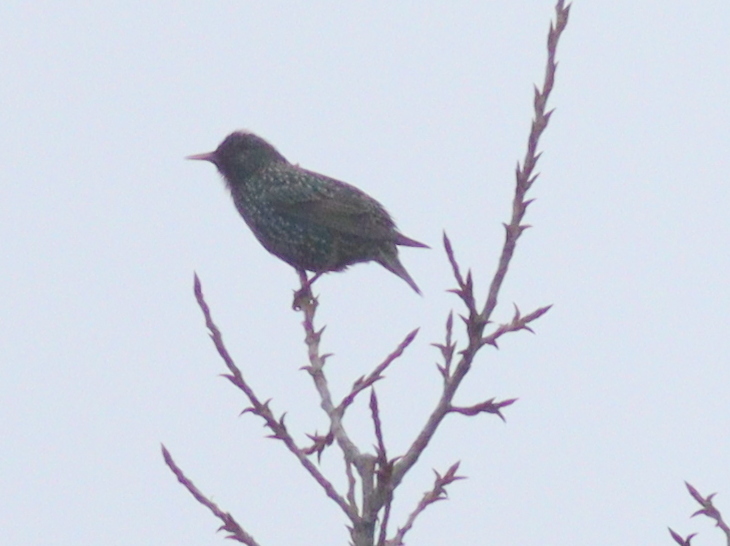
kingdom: Animalia
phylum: Chordata
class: Aves
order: Passeriformes
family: Sturnidae
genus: Sturnus
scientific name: Sturnus vulgaris
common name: Common starling
